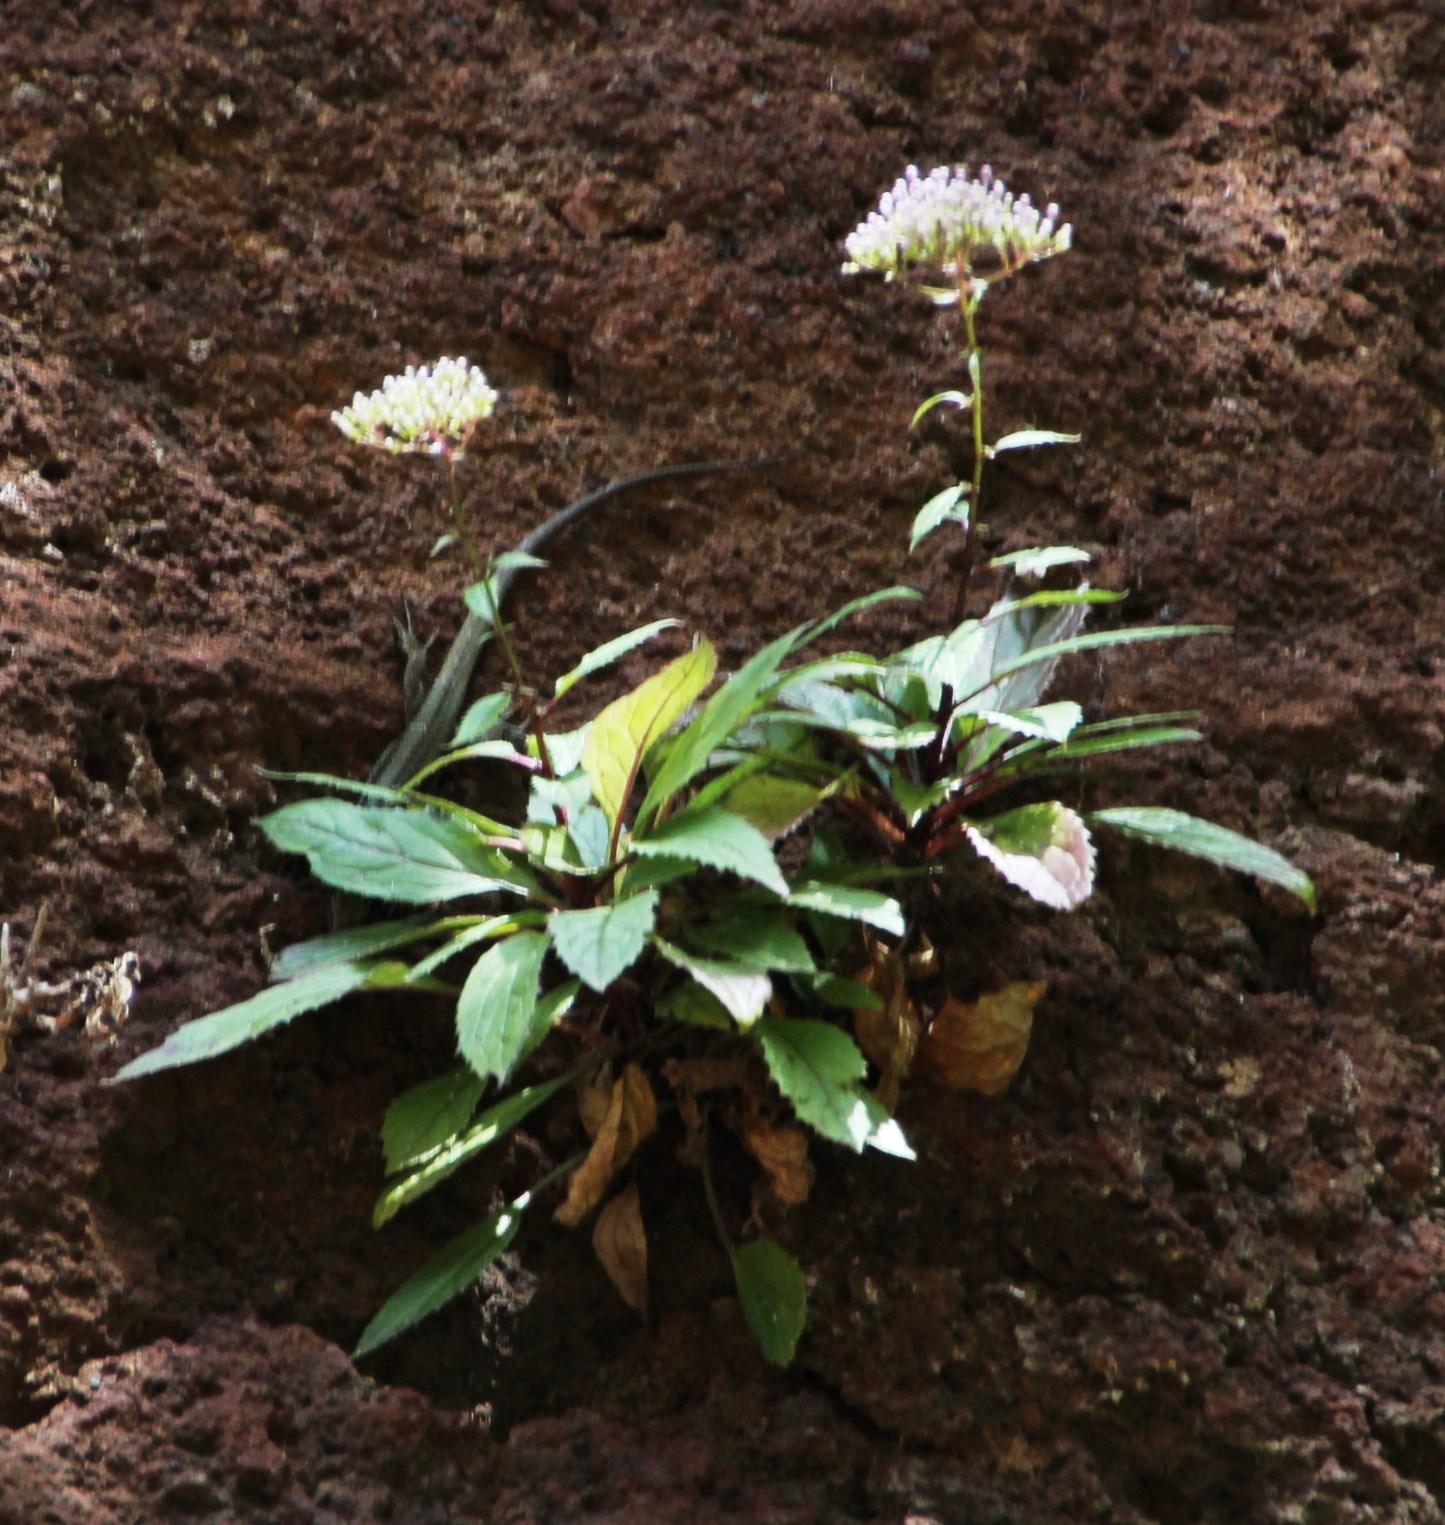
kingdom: Plantae
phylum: Tracheophyta
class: Magnoliopsida
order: Asterales
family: Campanulaceae
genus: Trachelium
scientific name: Trachelium caeruleum
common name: Throatwort
